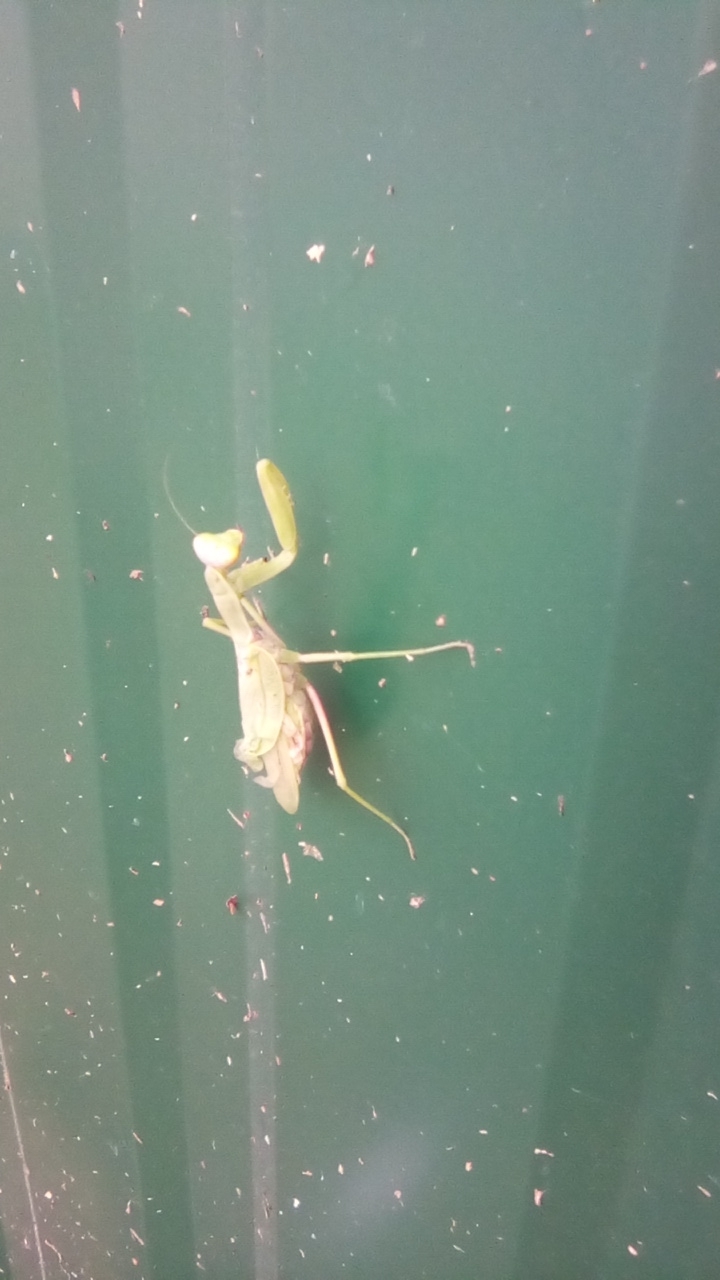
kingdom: Animalia
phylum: Arthropoda
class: Insecta
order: Mantodea
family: Mantidae
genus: Hierodula
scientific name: Hierodula transcaucasica
